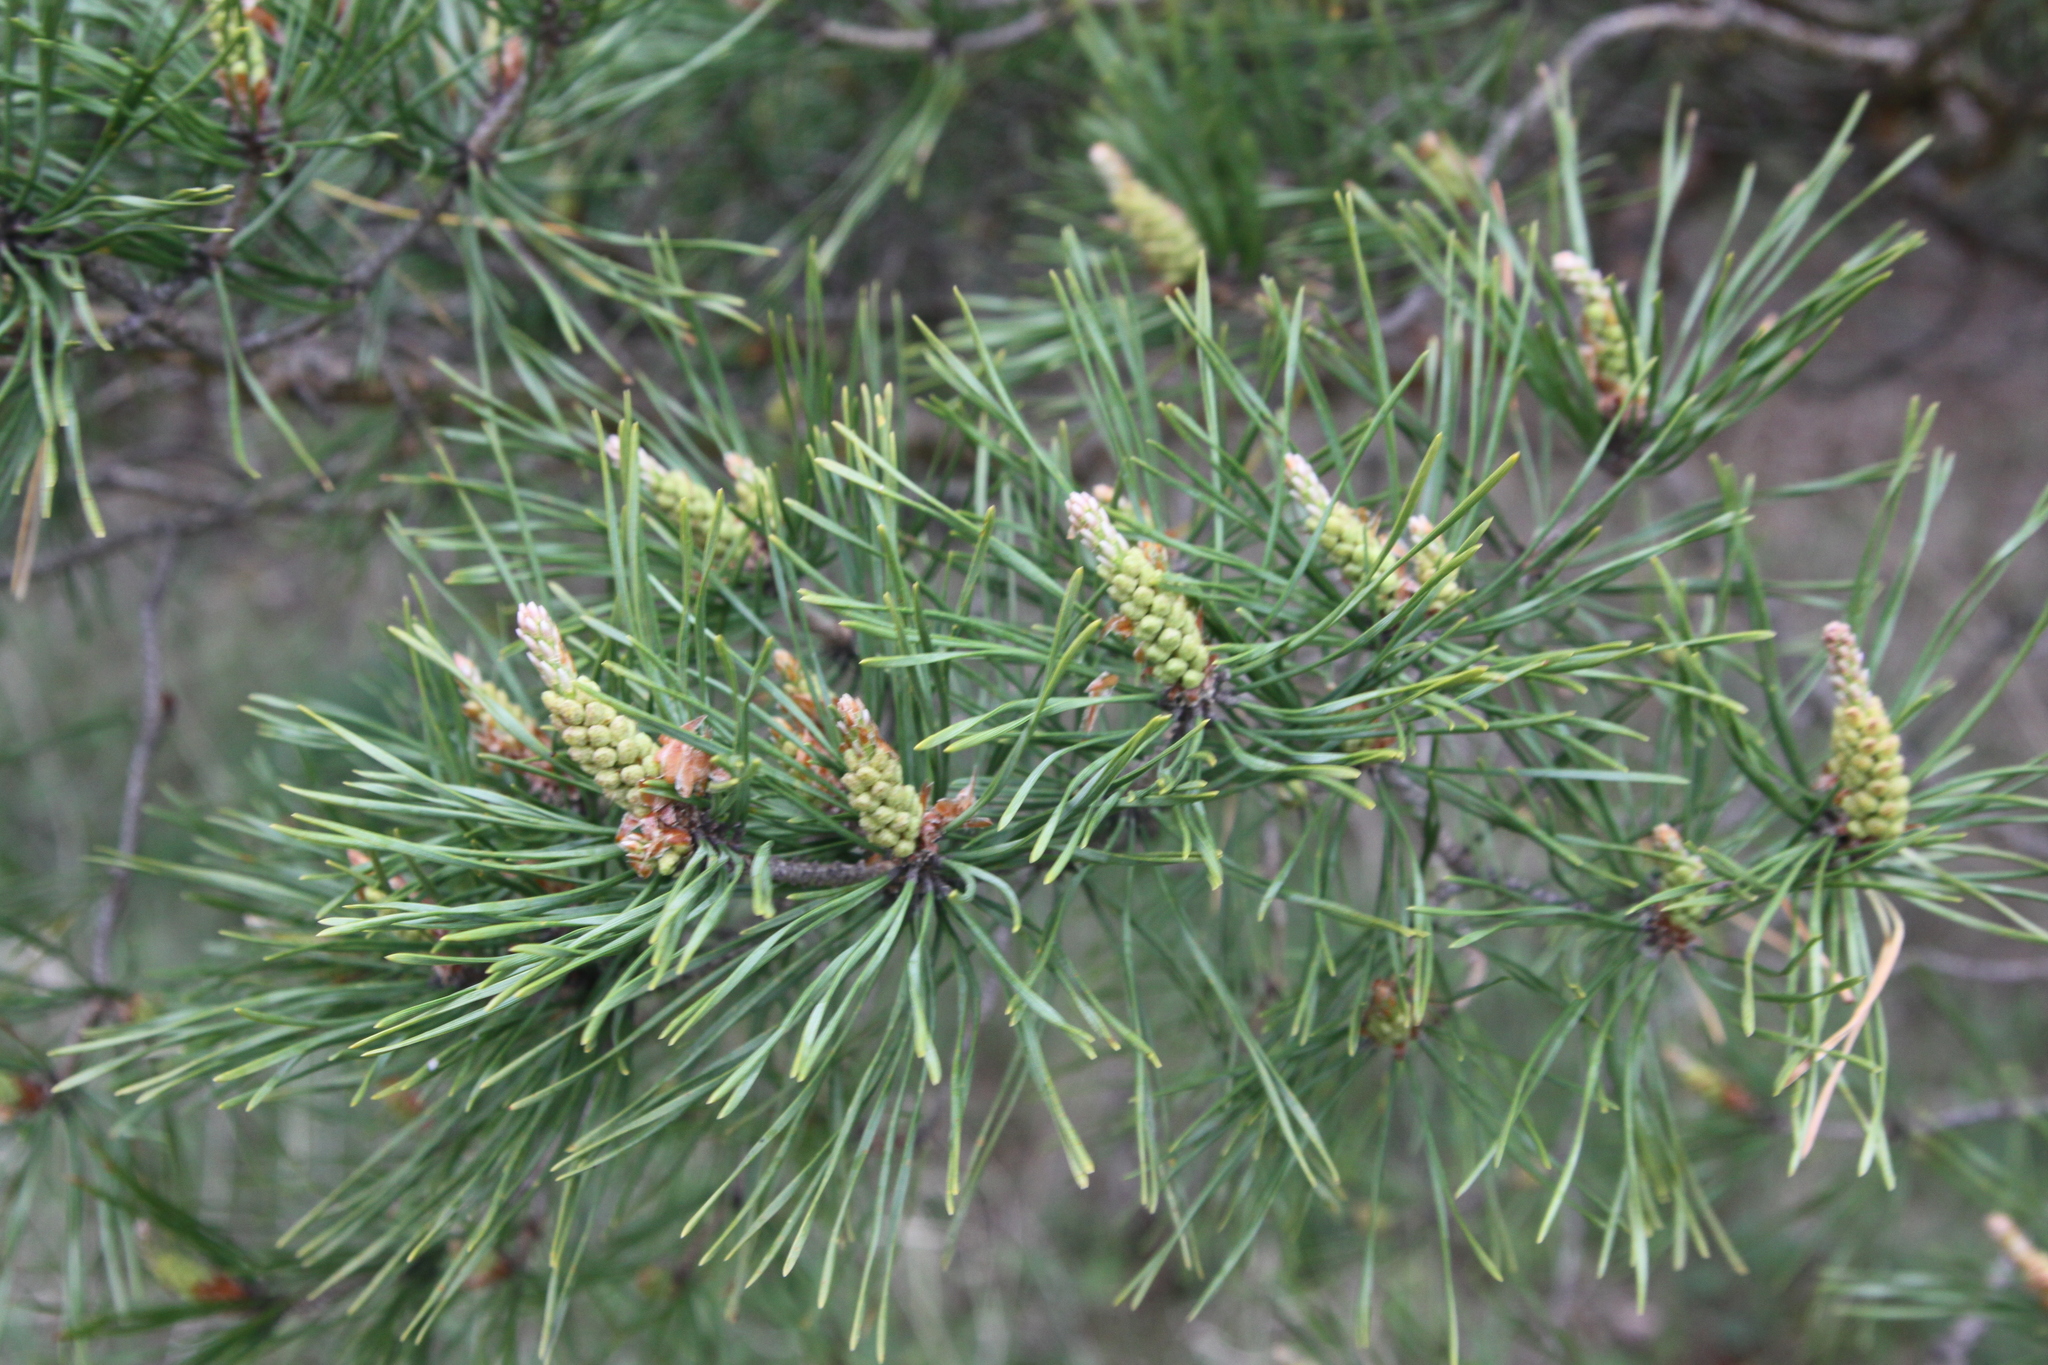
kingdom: Plantae
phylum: Tracheophyta
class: Pinopsida
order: Pinales
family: Pinaceae
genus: Pinus
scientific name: Pinus sylvestris
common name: Scots pine
